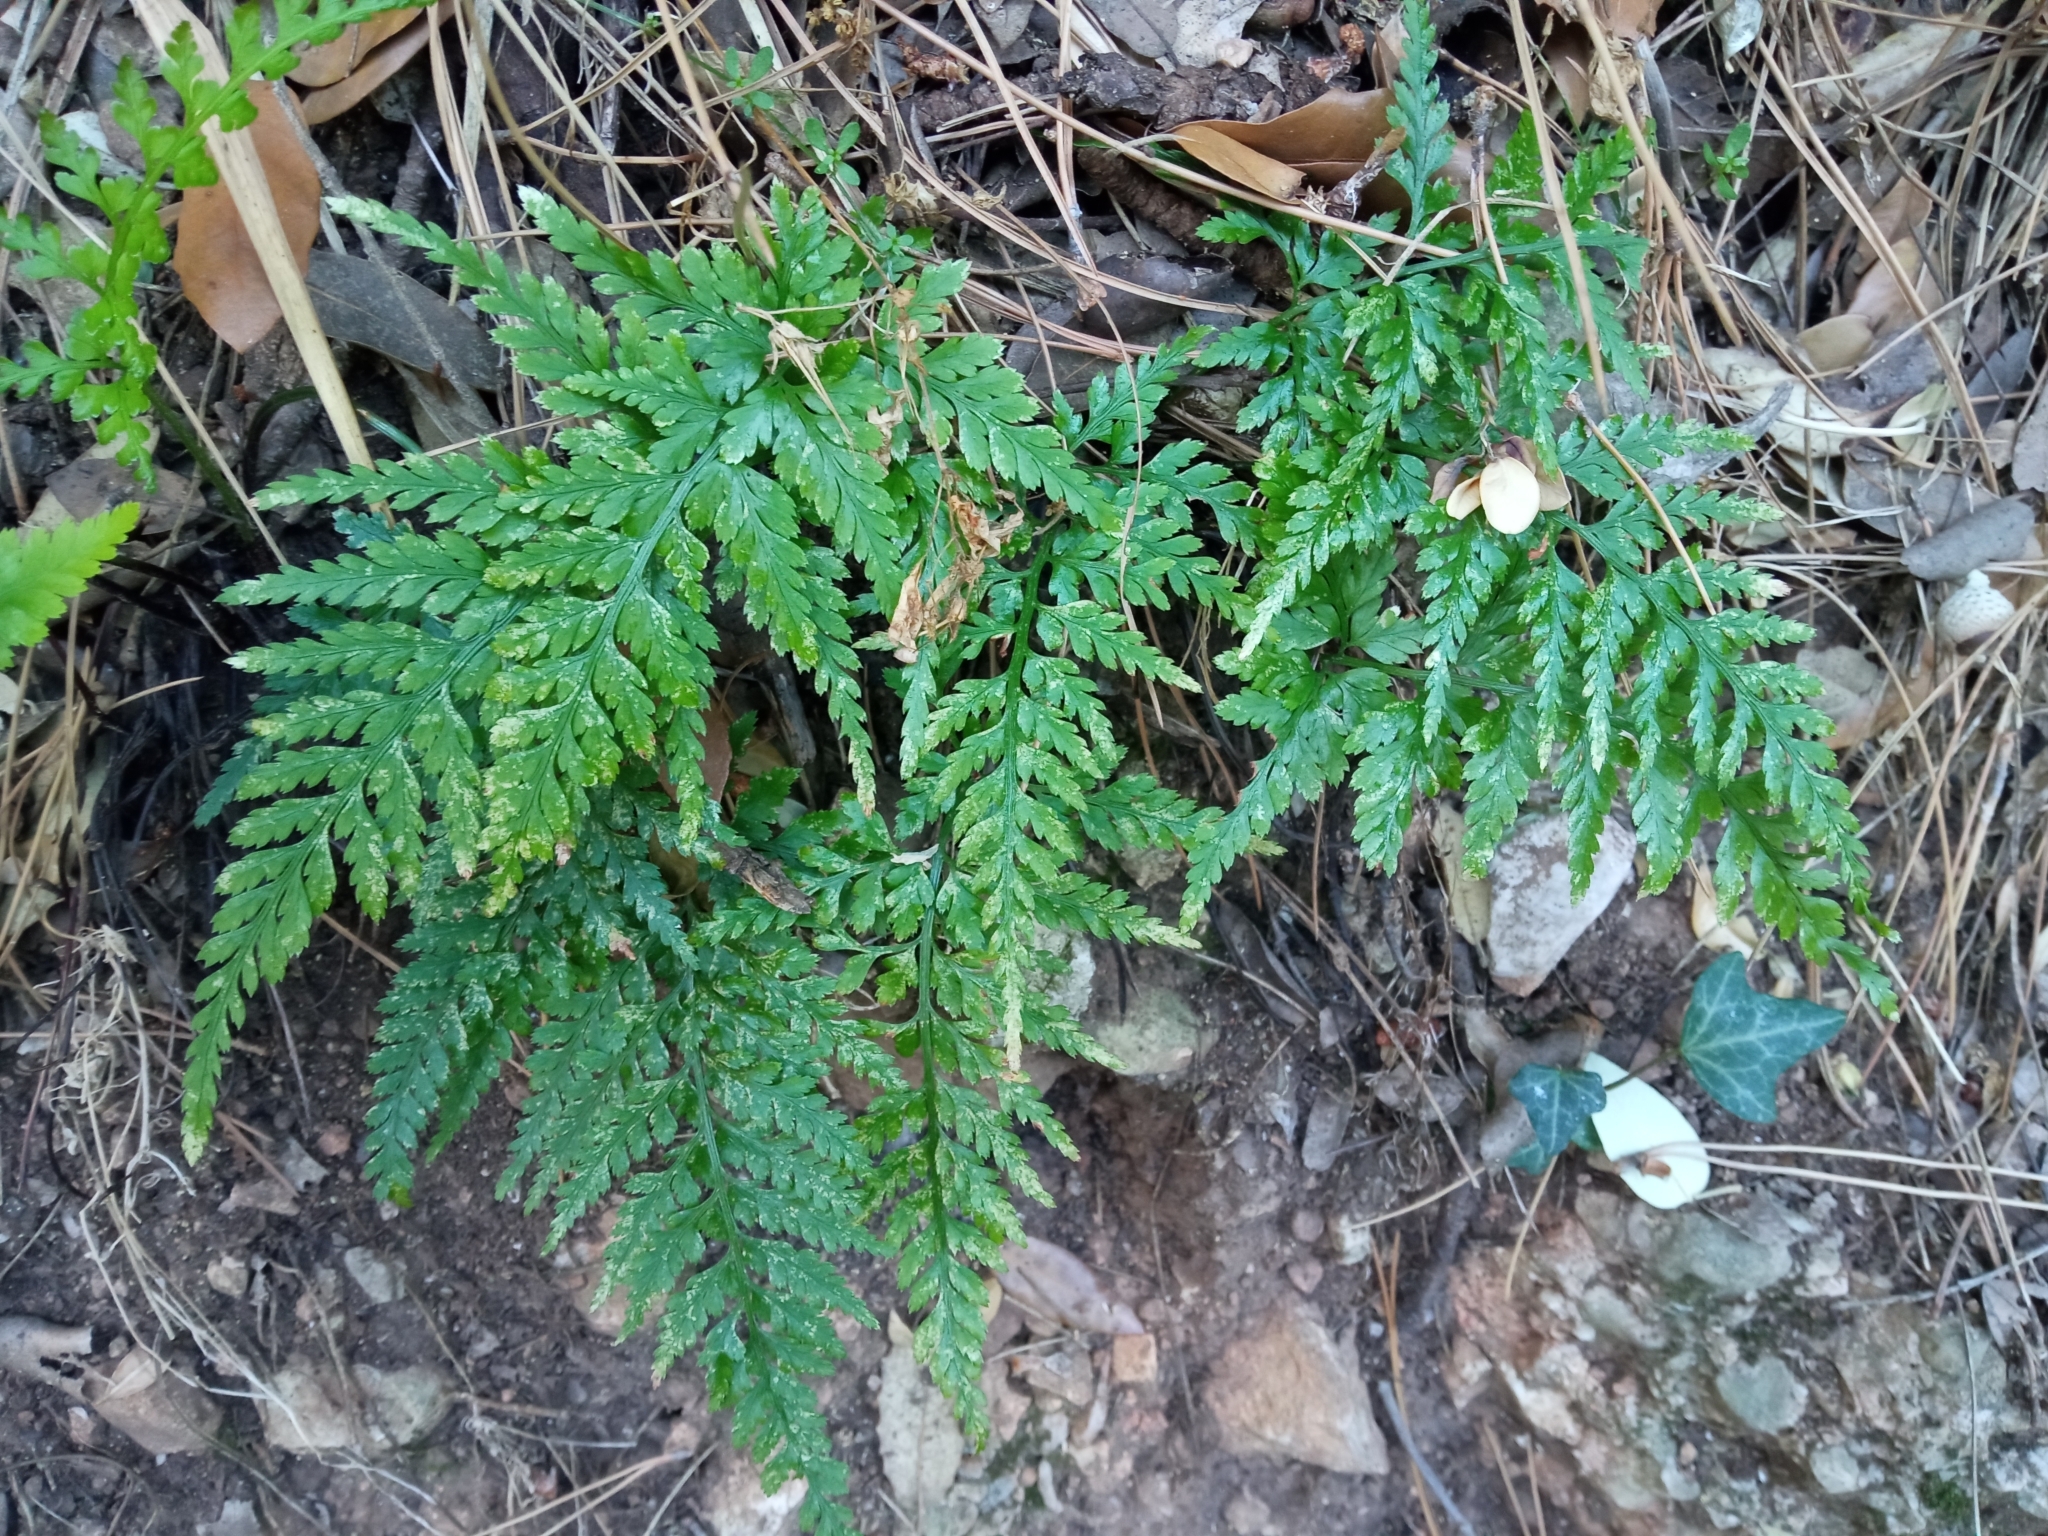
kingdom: Plantae
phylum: Tracheophyta
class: Polypodiopsida
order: Polypodiales
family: Aspleniaceae
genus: Asplenium
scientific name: Asplenium onopteris
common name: Irish spleenwort
